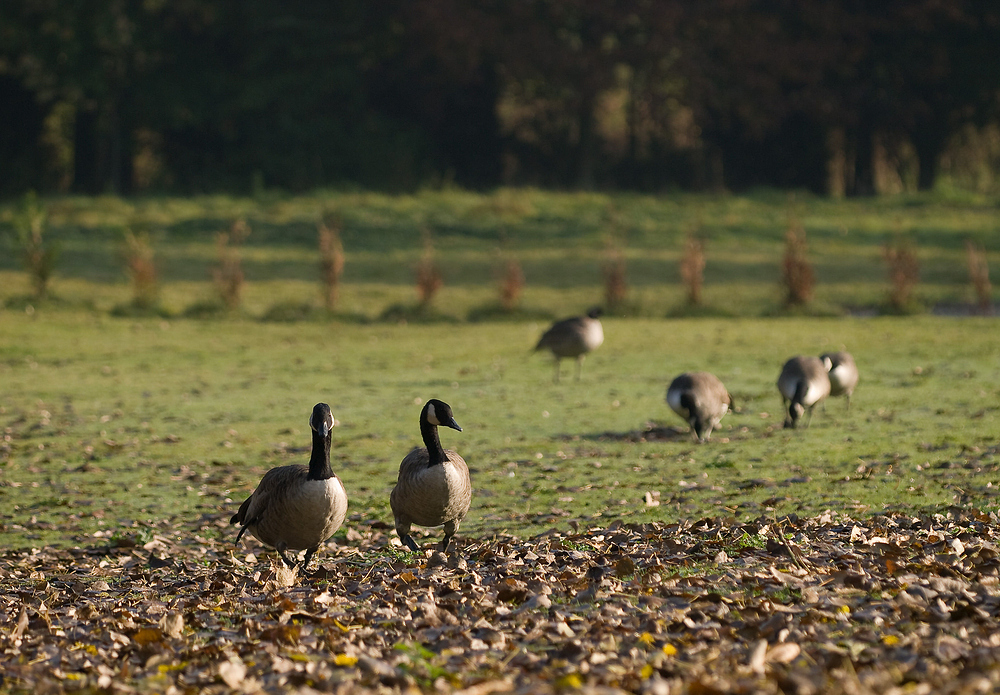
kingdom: Animalia
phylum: Chordata
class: Aves
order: Anseriformes
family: Anatidae
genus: Branta
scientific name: Branta canadensis
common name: Canada goose
